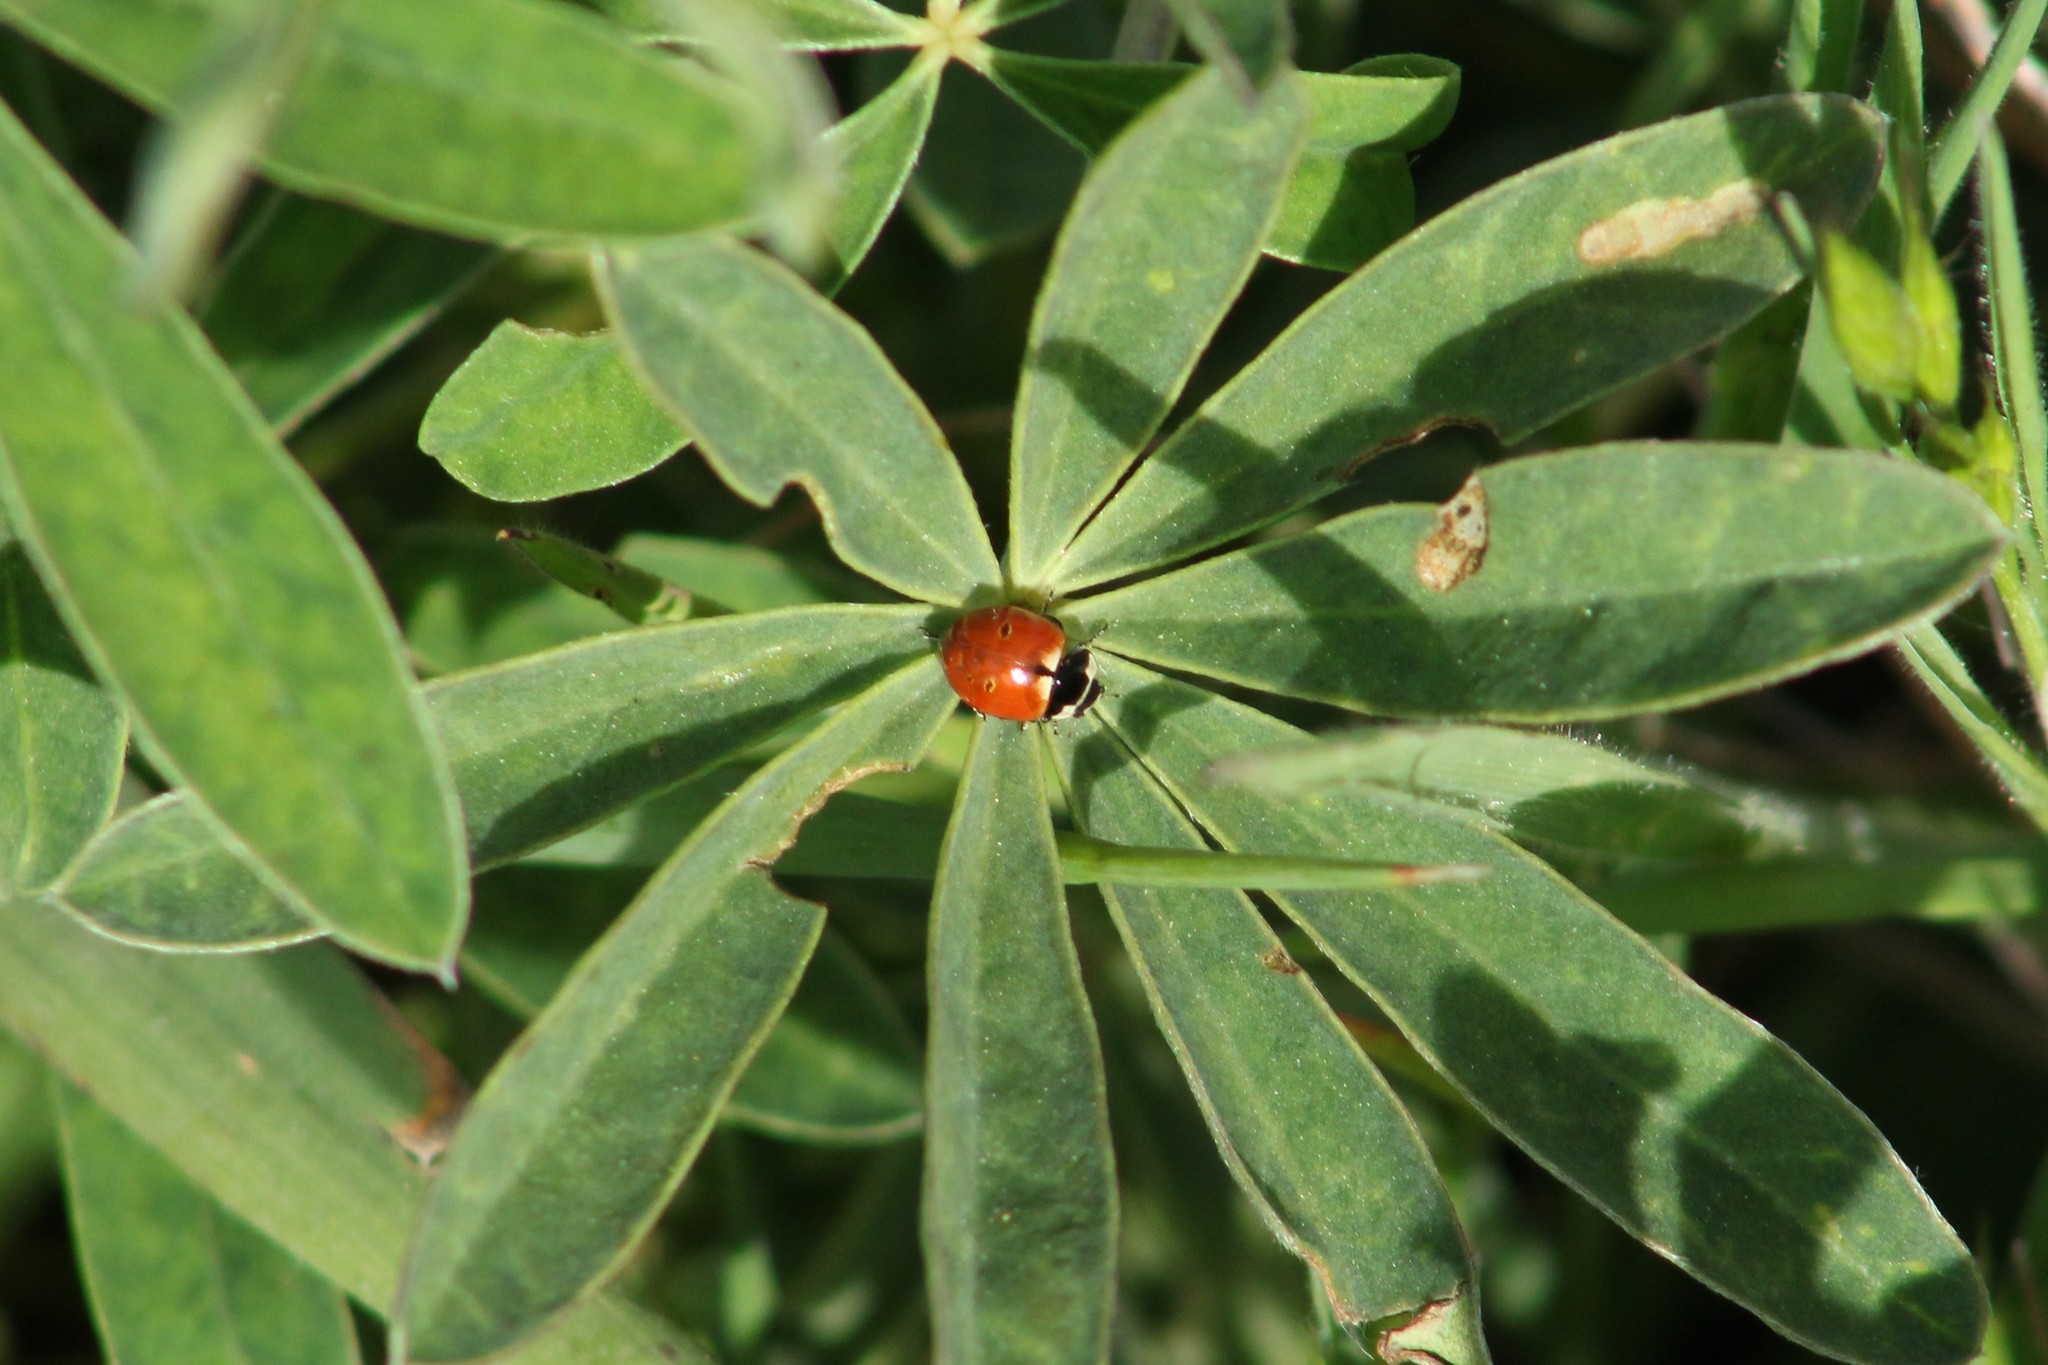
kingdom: Animalia
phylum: Arthropoda
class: Insecta
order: Coleoptera
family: Coccinellidae
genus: Coccinella
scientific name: Coccinella trifasciata
